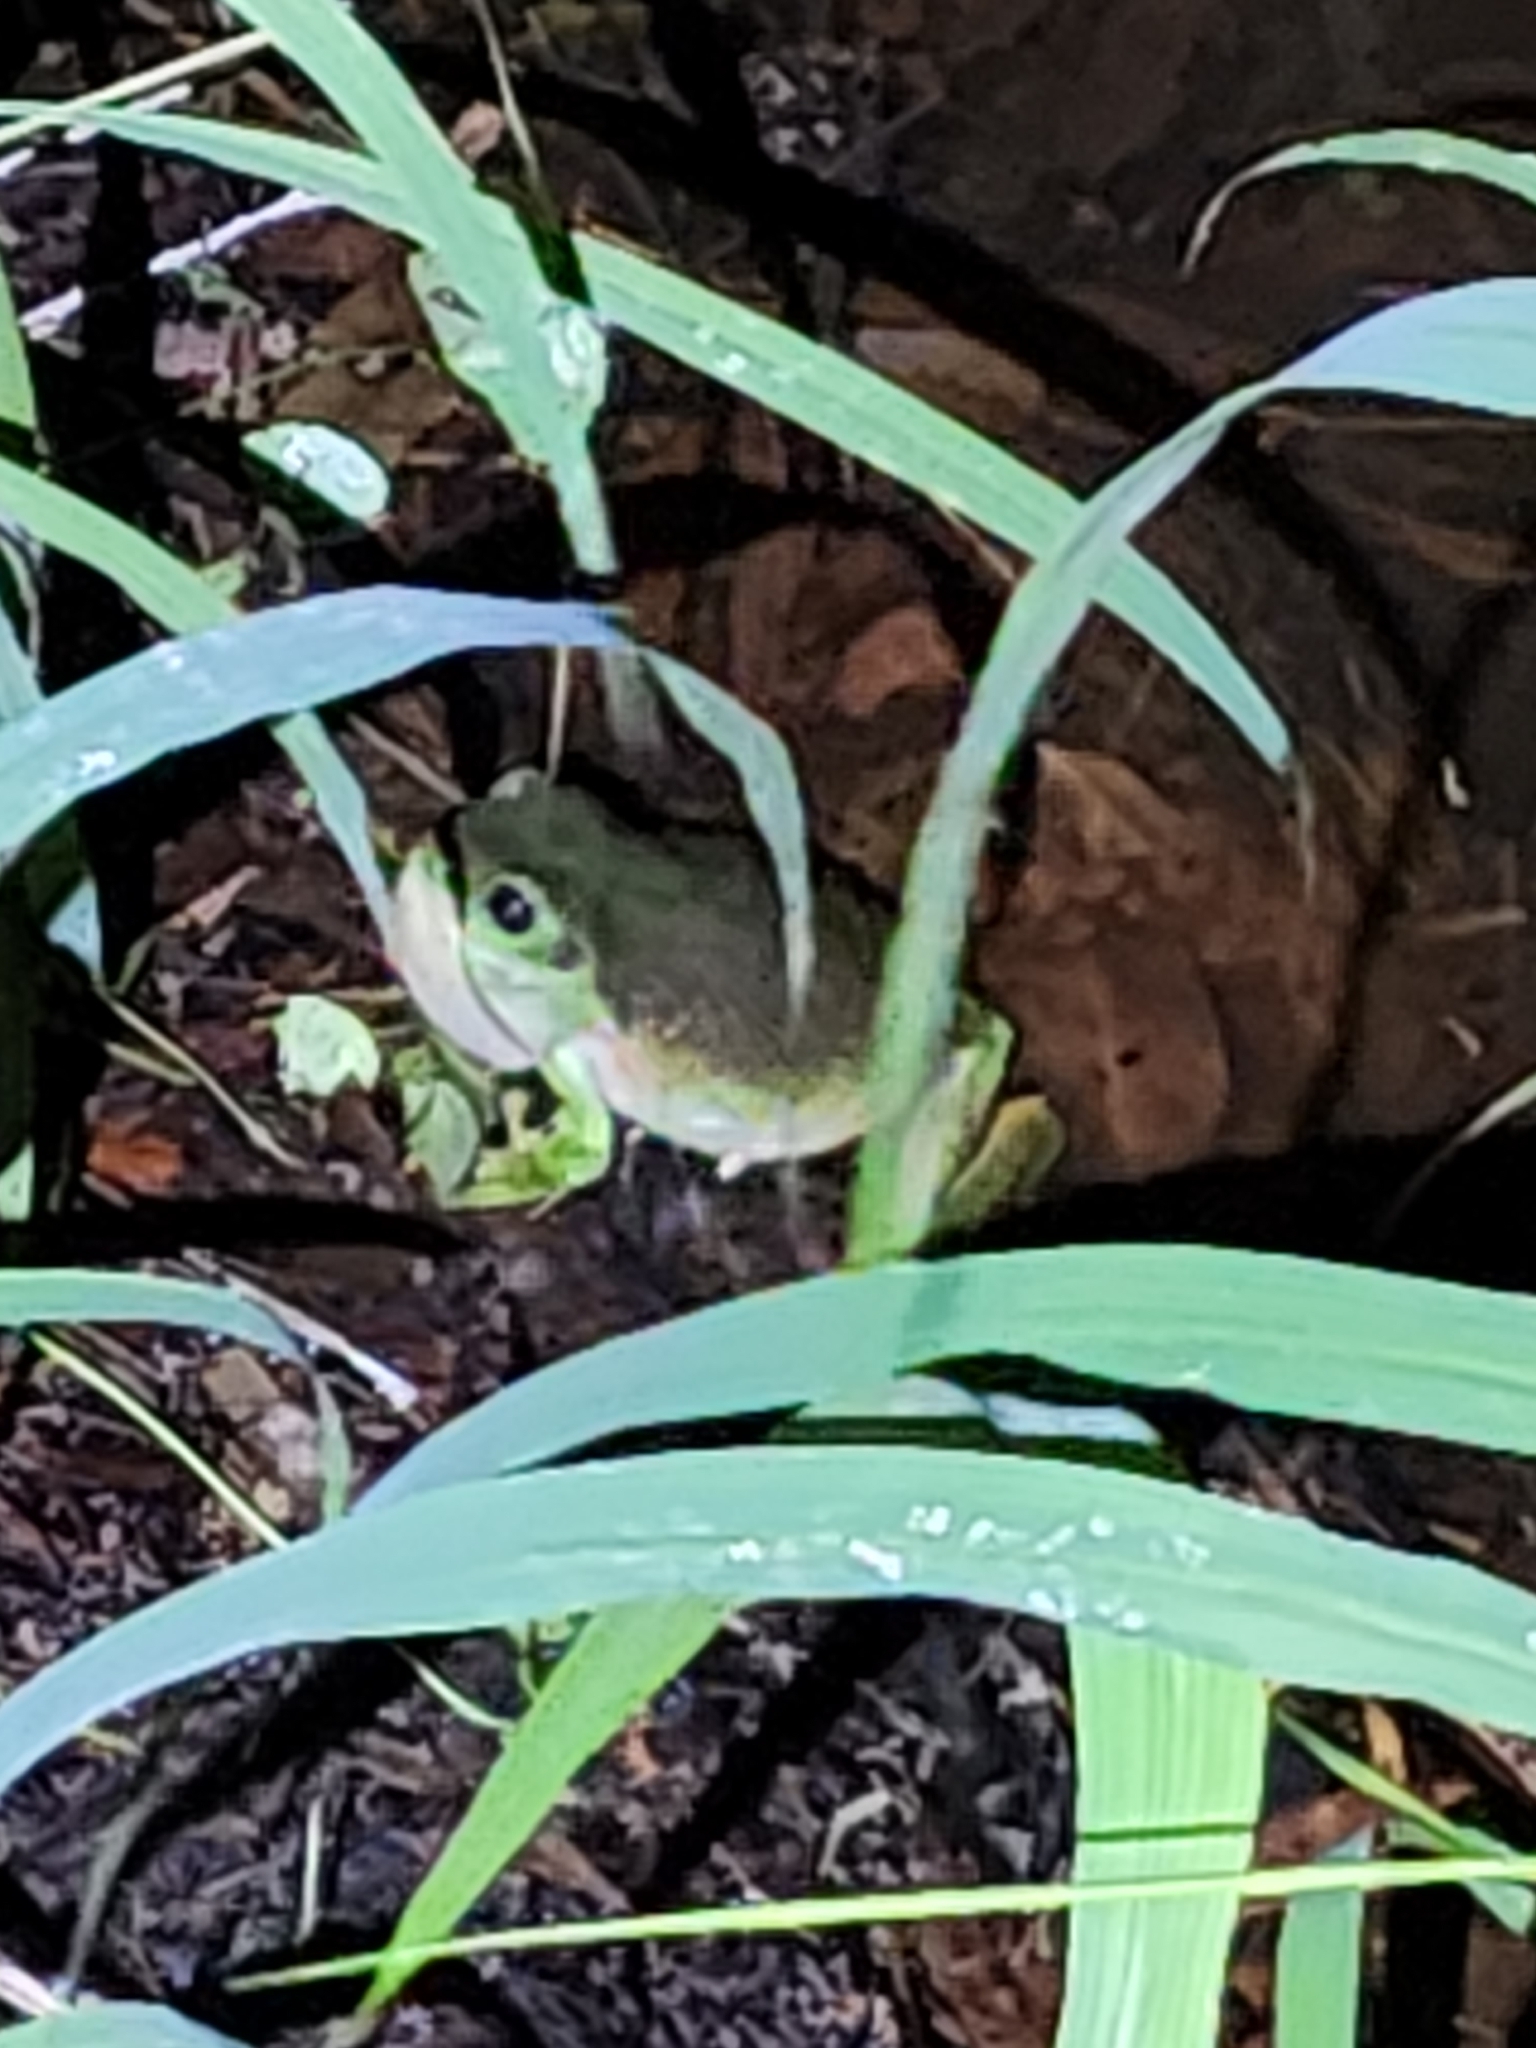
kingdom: Animalia
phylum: Chordata
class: Amphibia
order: Anura
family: Pelodryadidae
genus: Ranoidea
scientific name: Ranoidea caerulea
